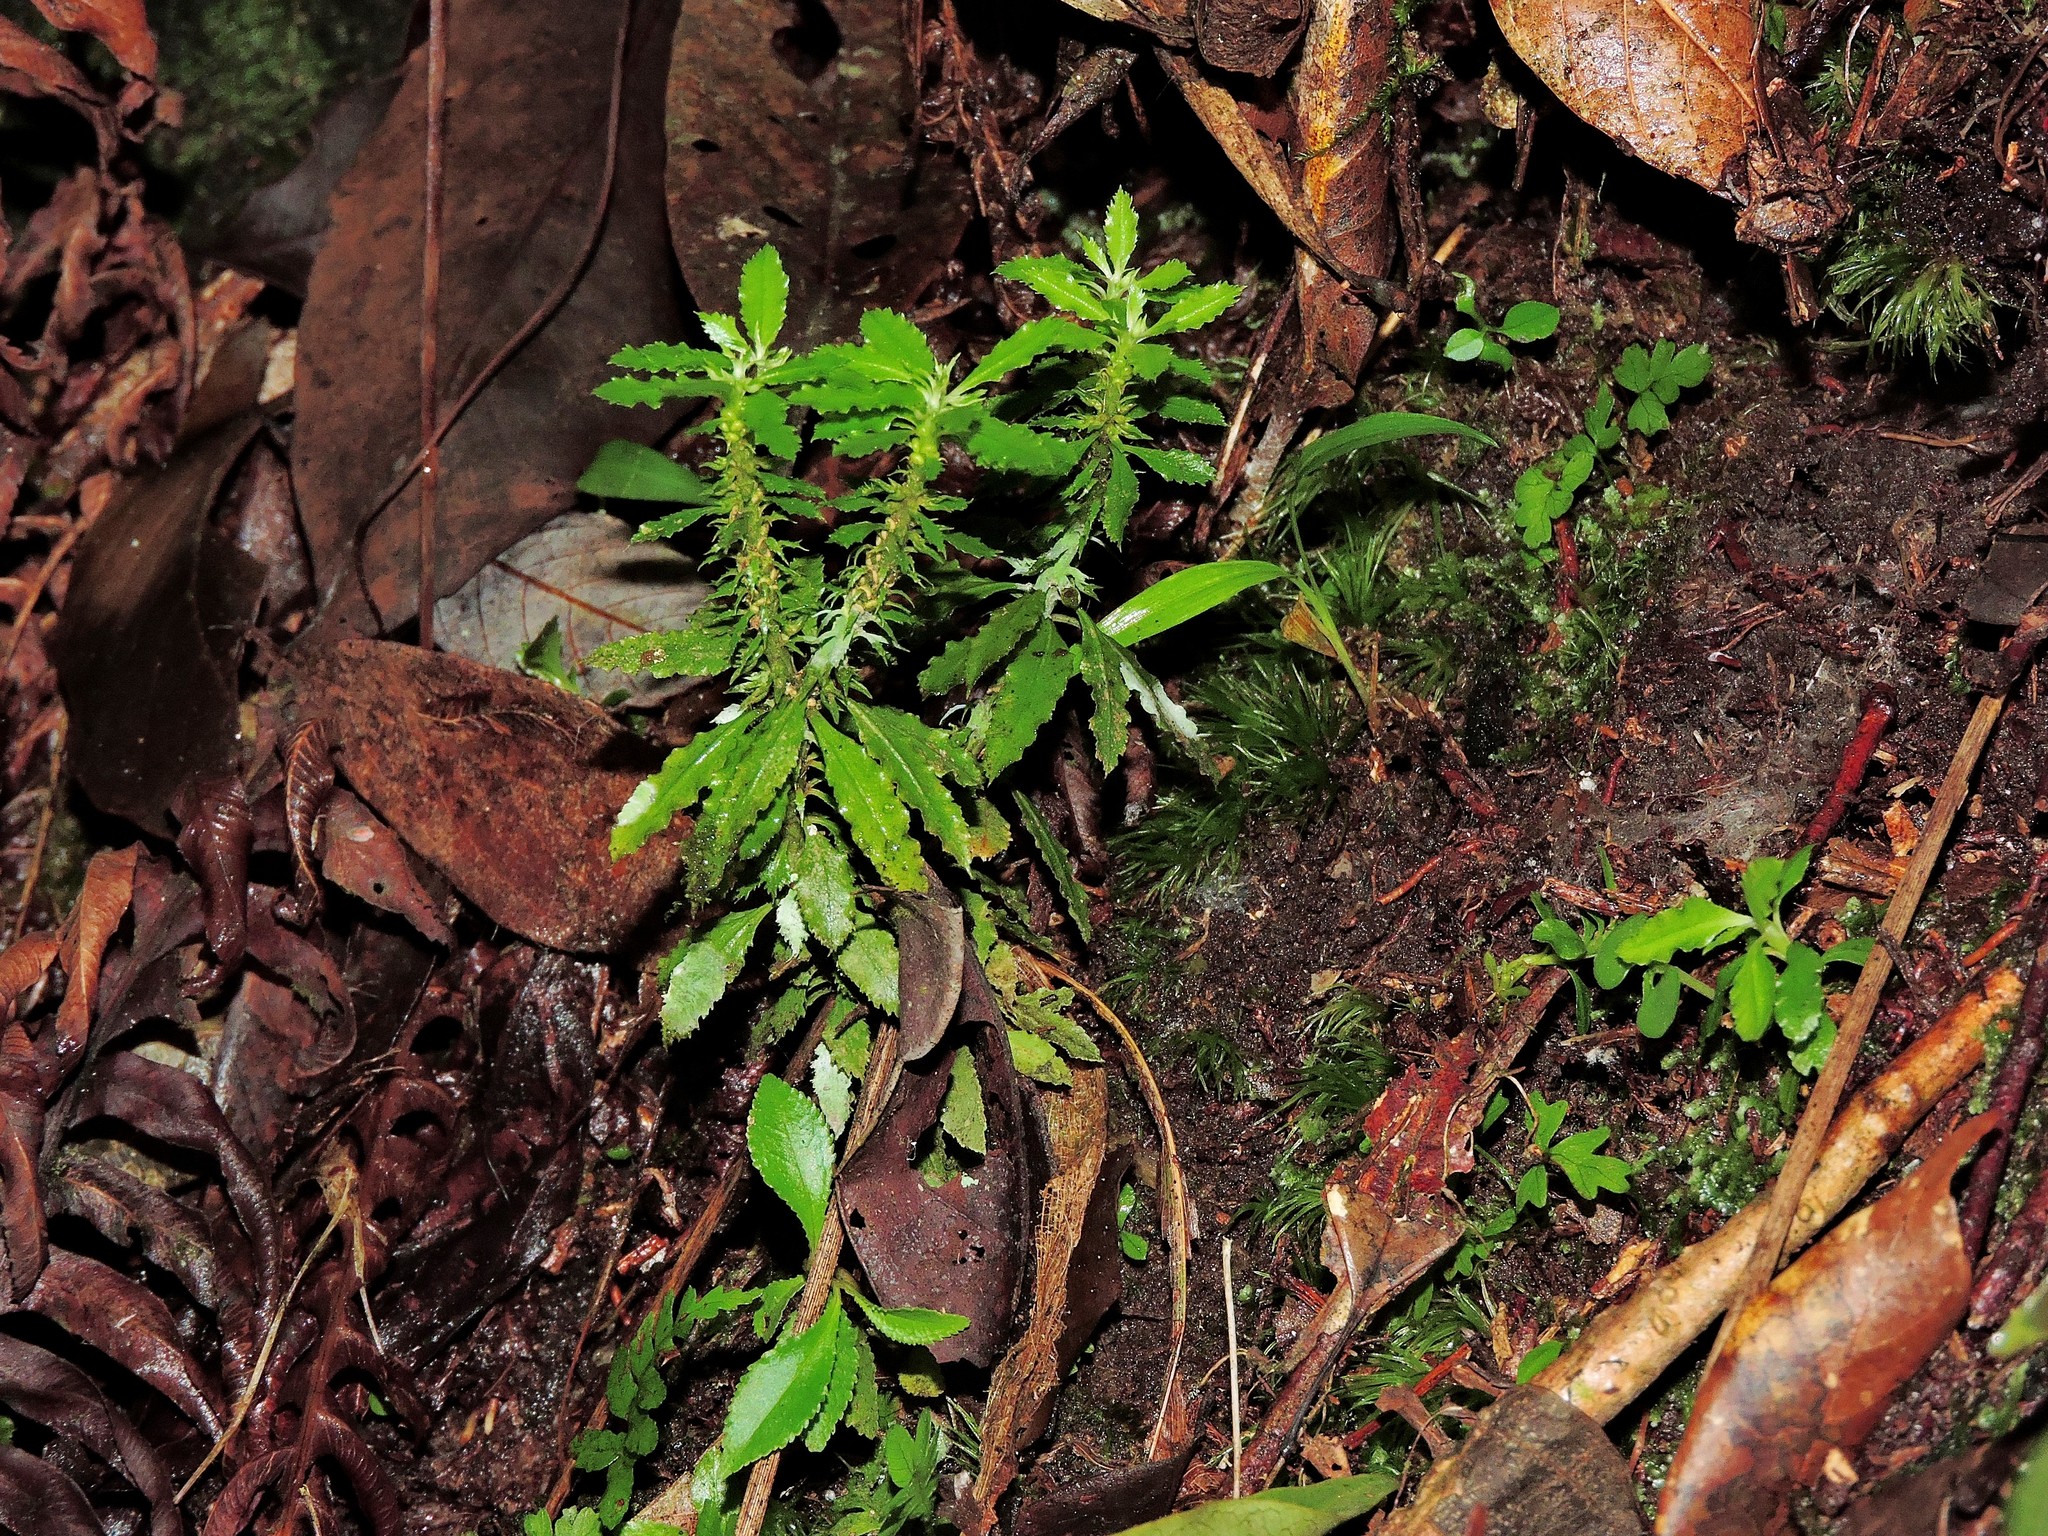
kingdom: Plantae
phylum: Tracheophyta
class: Lycopodiopsida
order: Lycopodiales
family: Lycopodiaceae
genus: Huperzia
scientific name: Huperzia javanica
